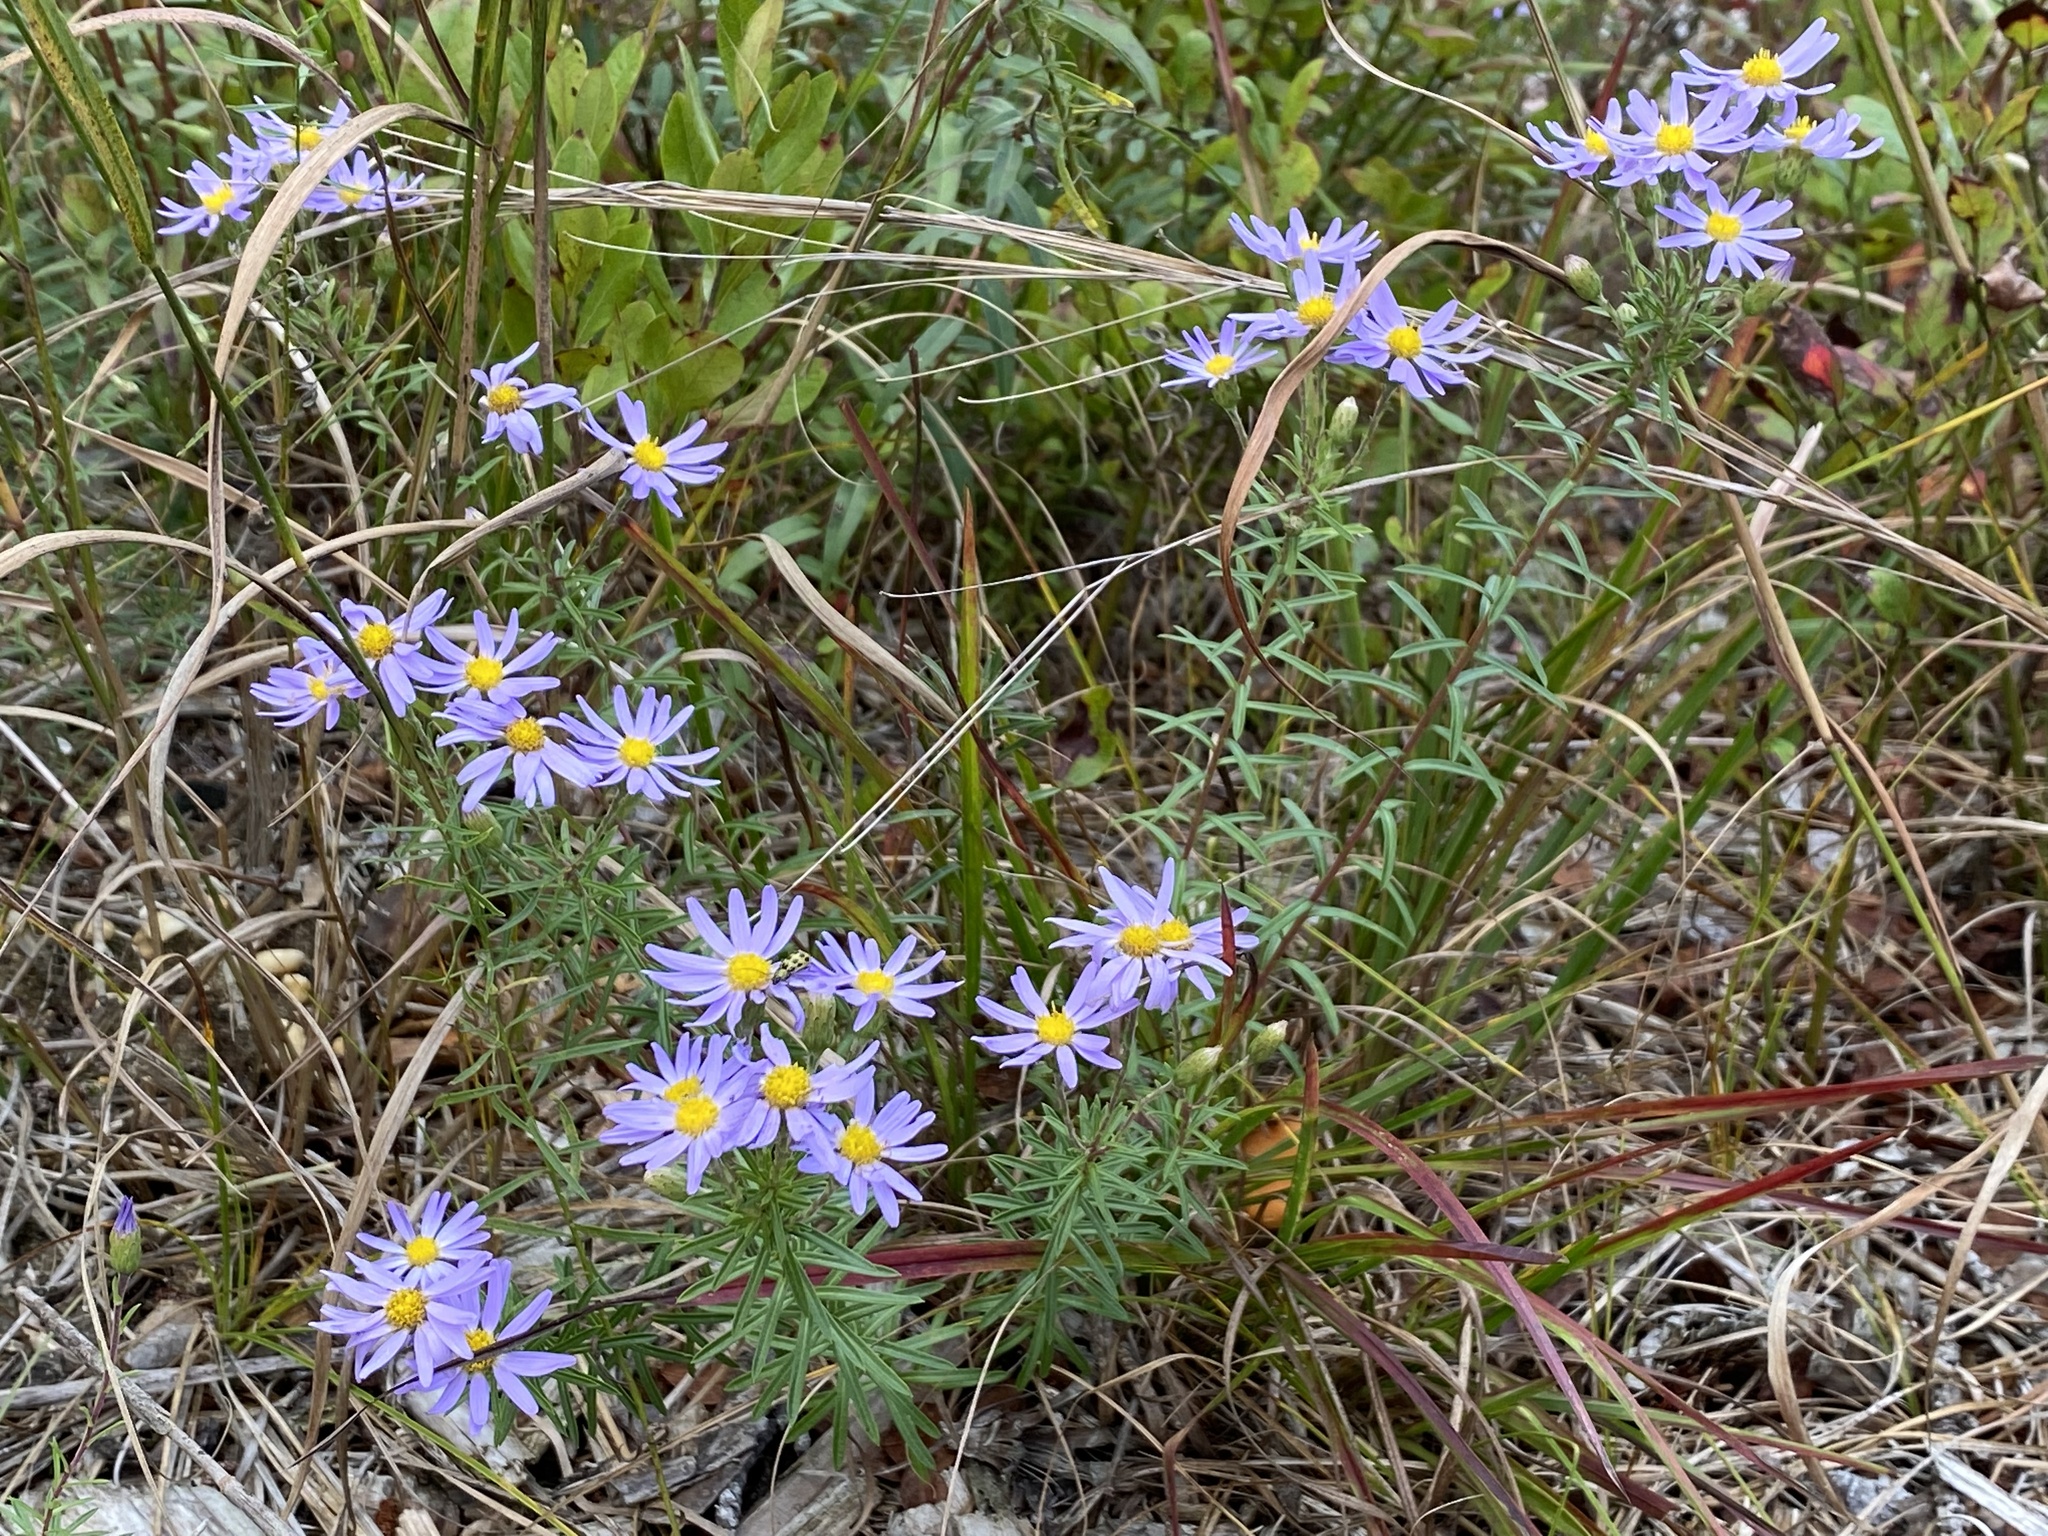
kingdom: Plantae
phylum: Tracheophyta
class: Magnoliopsida
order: Asterales
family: Asteraceae
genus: Ionactis
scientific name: Ionactis linariifolia
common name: Flax-leaf aster
